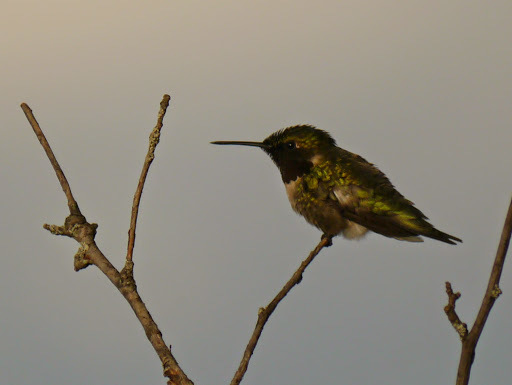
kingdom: Animalia
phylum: Chordata
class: Aves
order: Apodiformes
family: Trochilidae
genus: Archilochus
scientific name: Archilochus colubris
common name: Ruby-throated hummingbird
